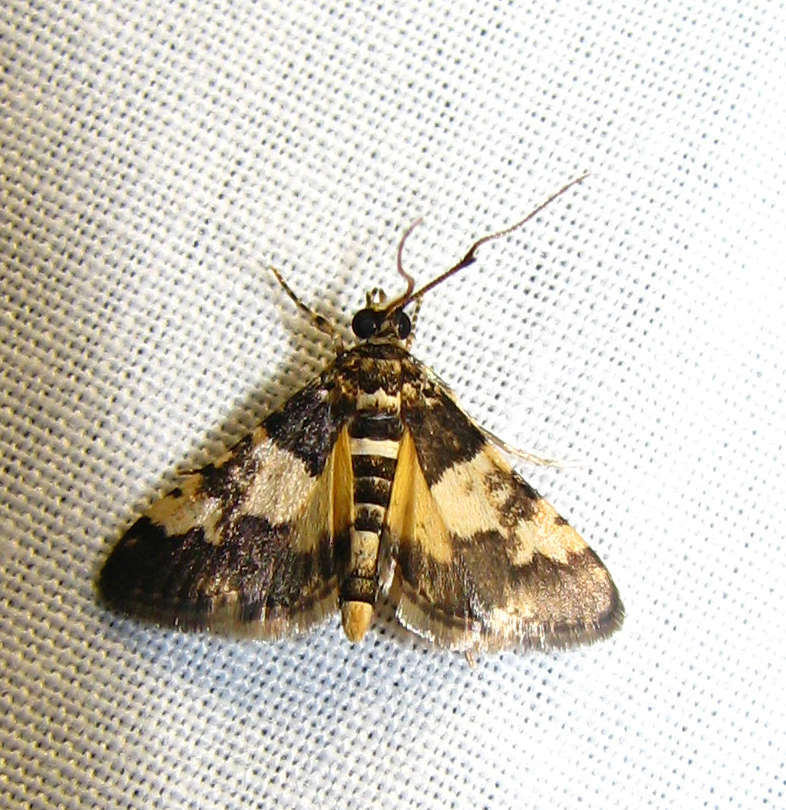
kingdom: Animalia
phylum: Arthropoda
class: Insecta
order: Lepidoptera
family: Crambidae
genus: Nacoleia
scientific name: Nacoleia mesochlora
